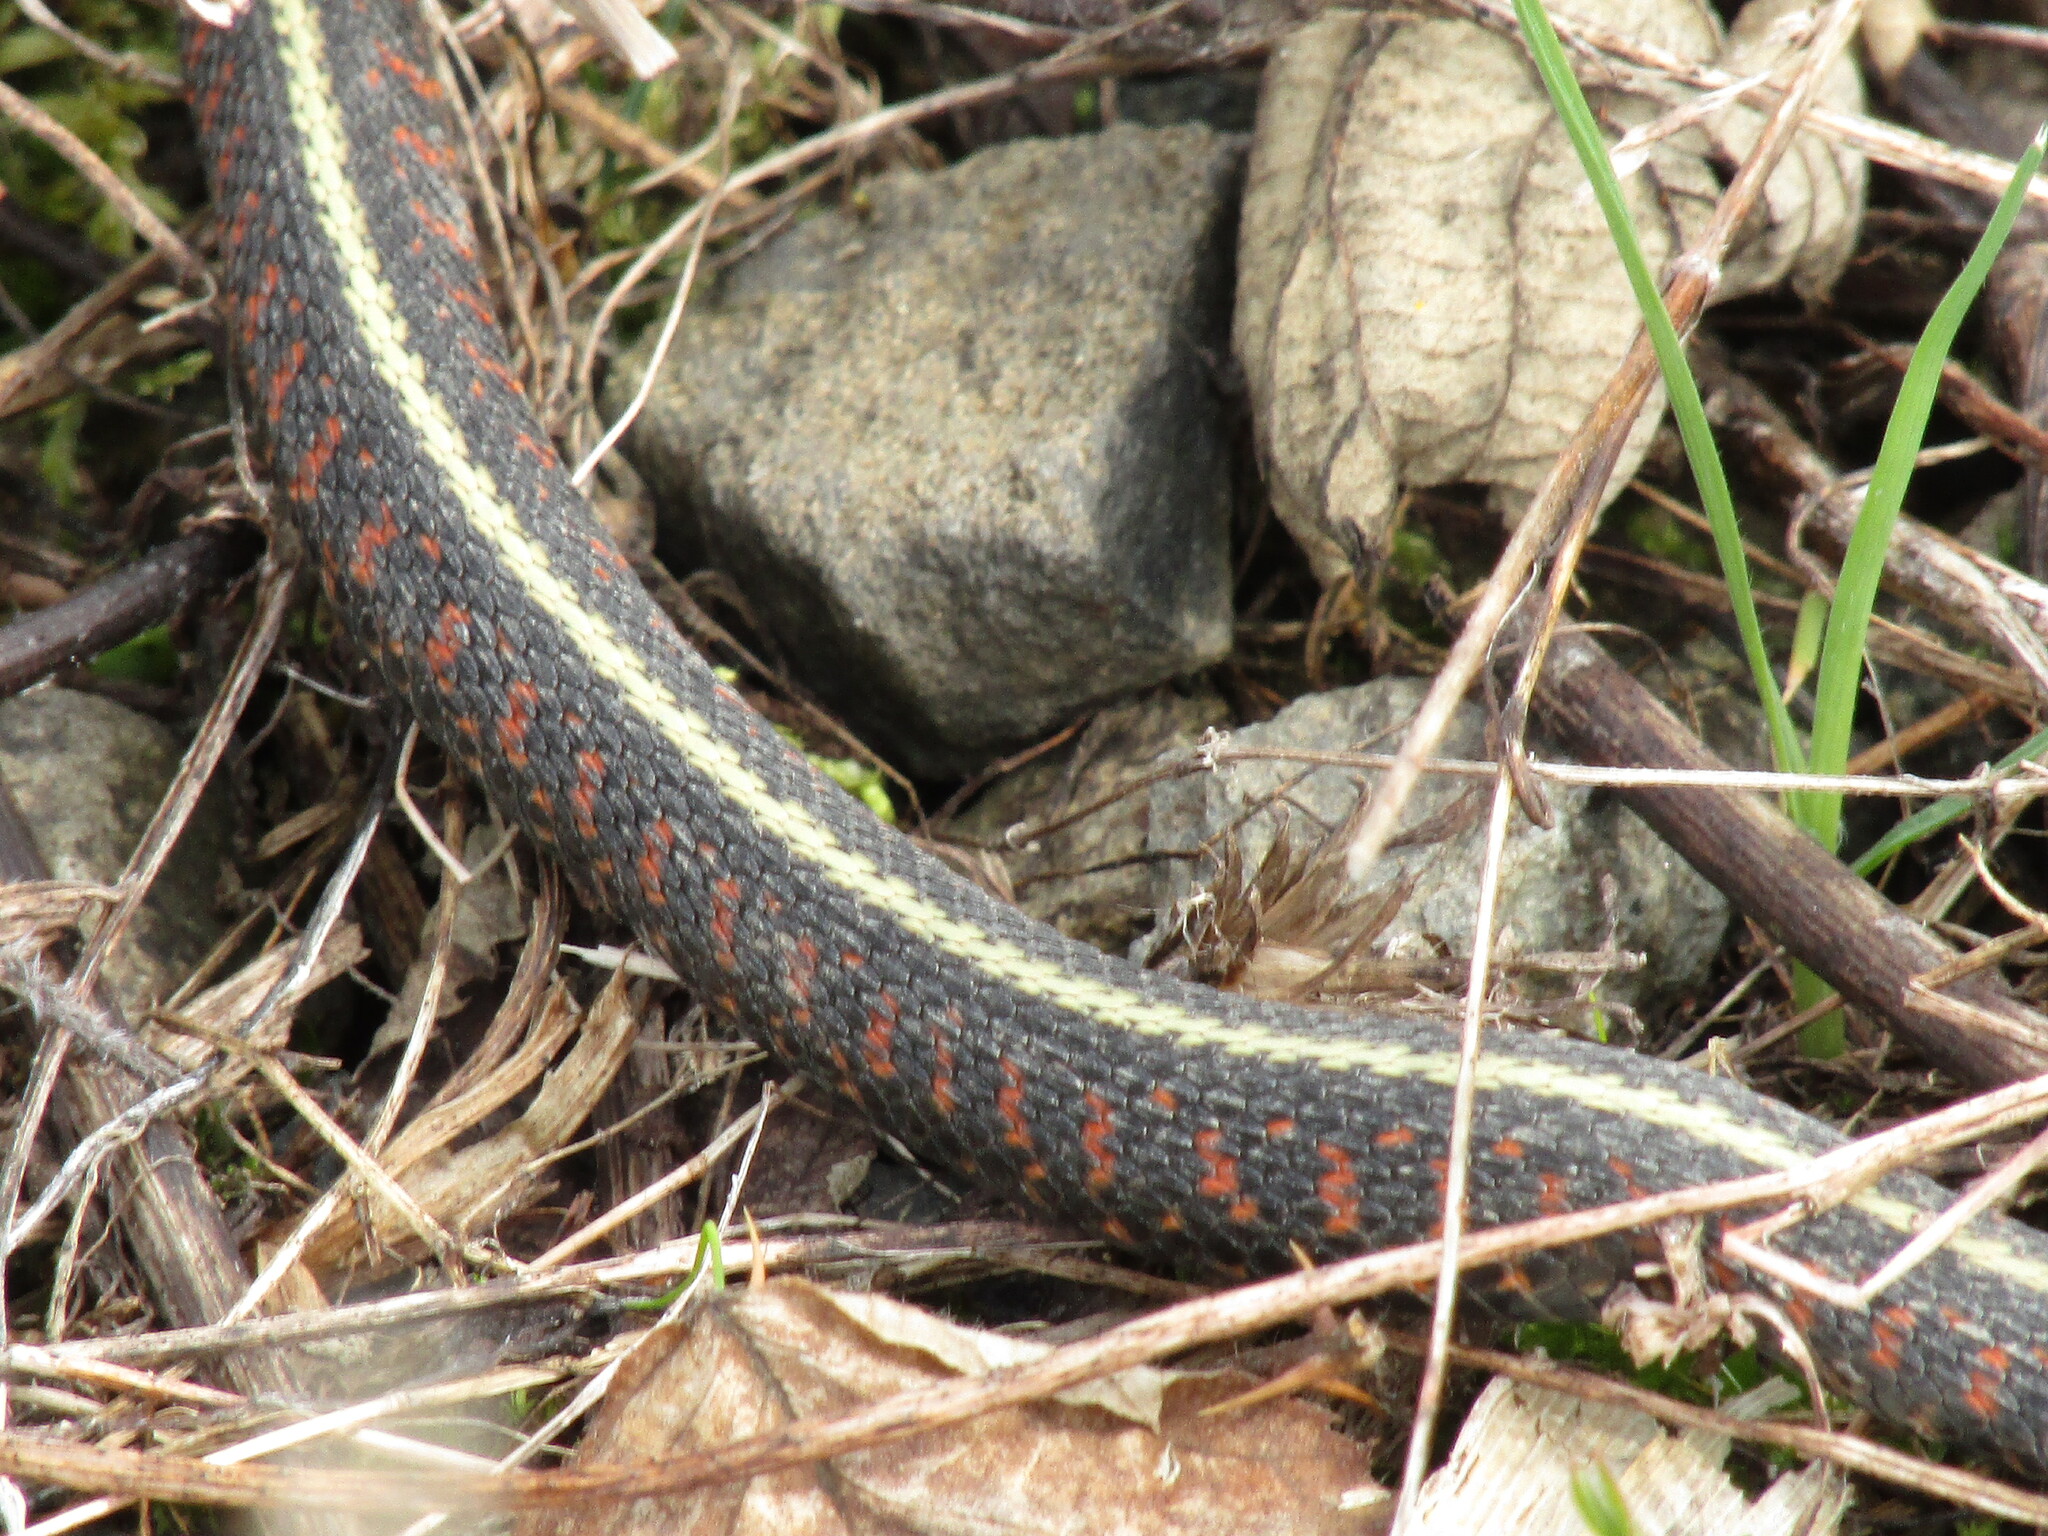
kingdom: Animalia
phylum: Chordata
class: Squamata
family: Colubridae
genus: Thamnophis
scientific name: Thamnophis sirtalis
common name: Common garter snake
